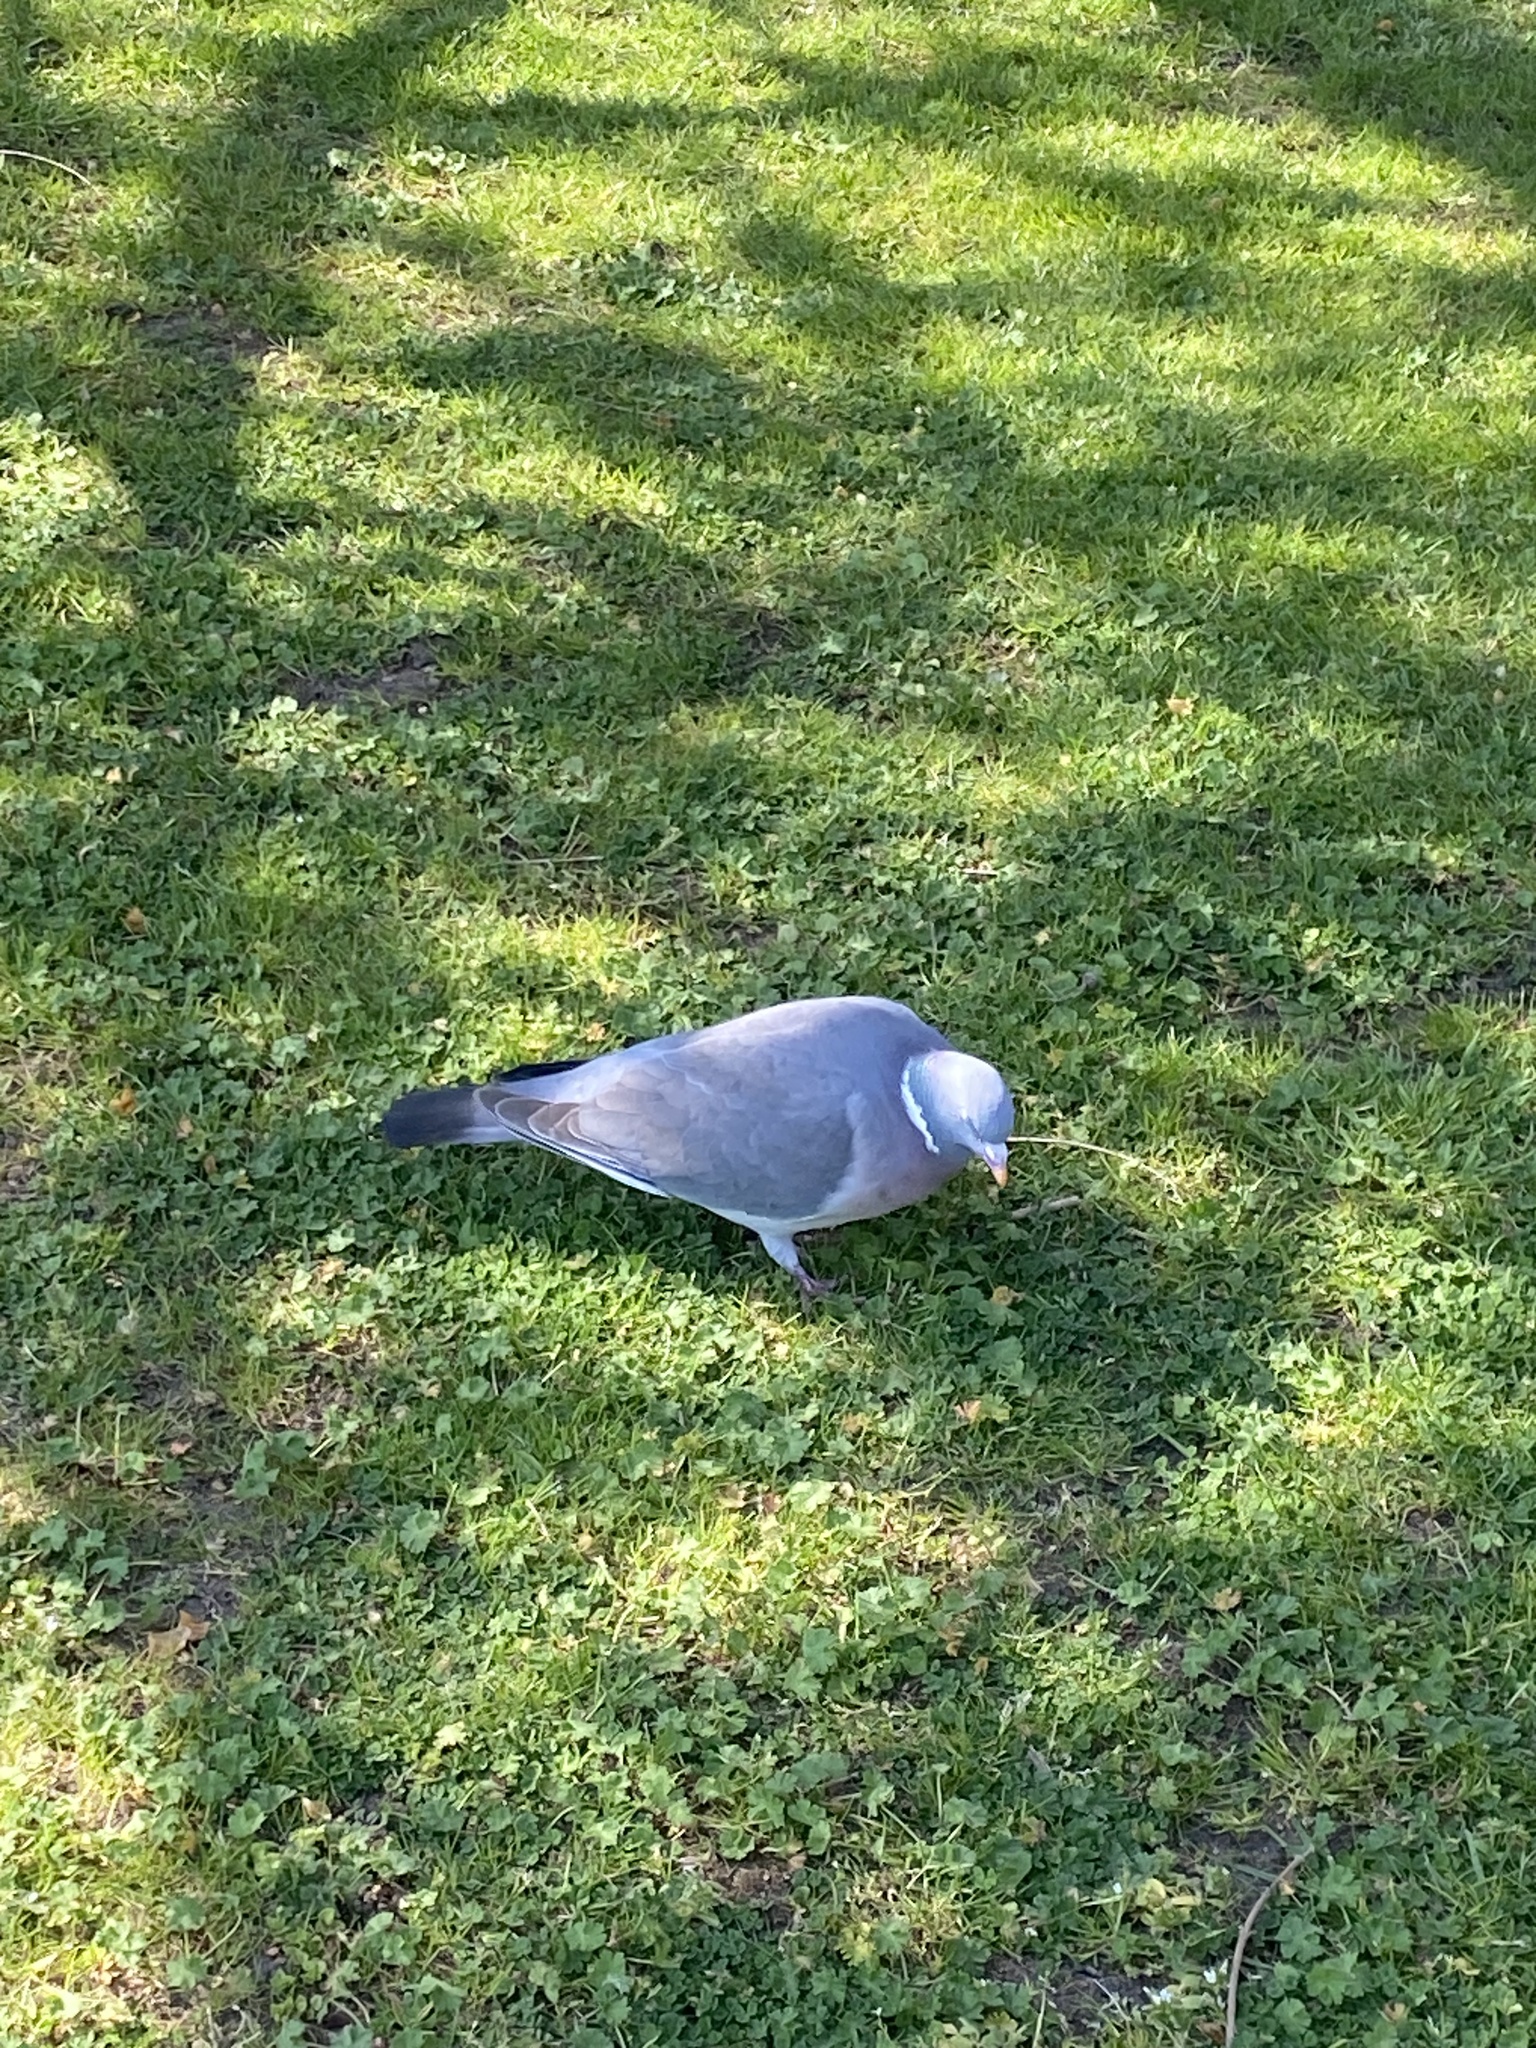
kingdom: Animalia
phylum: Chordata
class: Aves
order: Columbiformes
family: Columbidae
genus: Columba
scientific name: Columba palumbus
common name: Common wood pigeon
